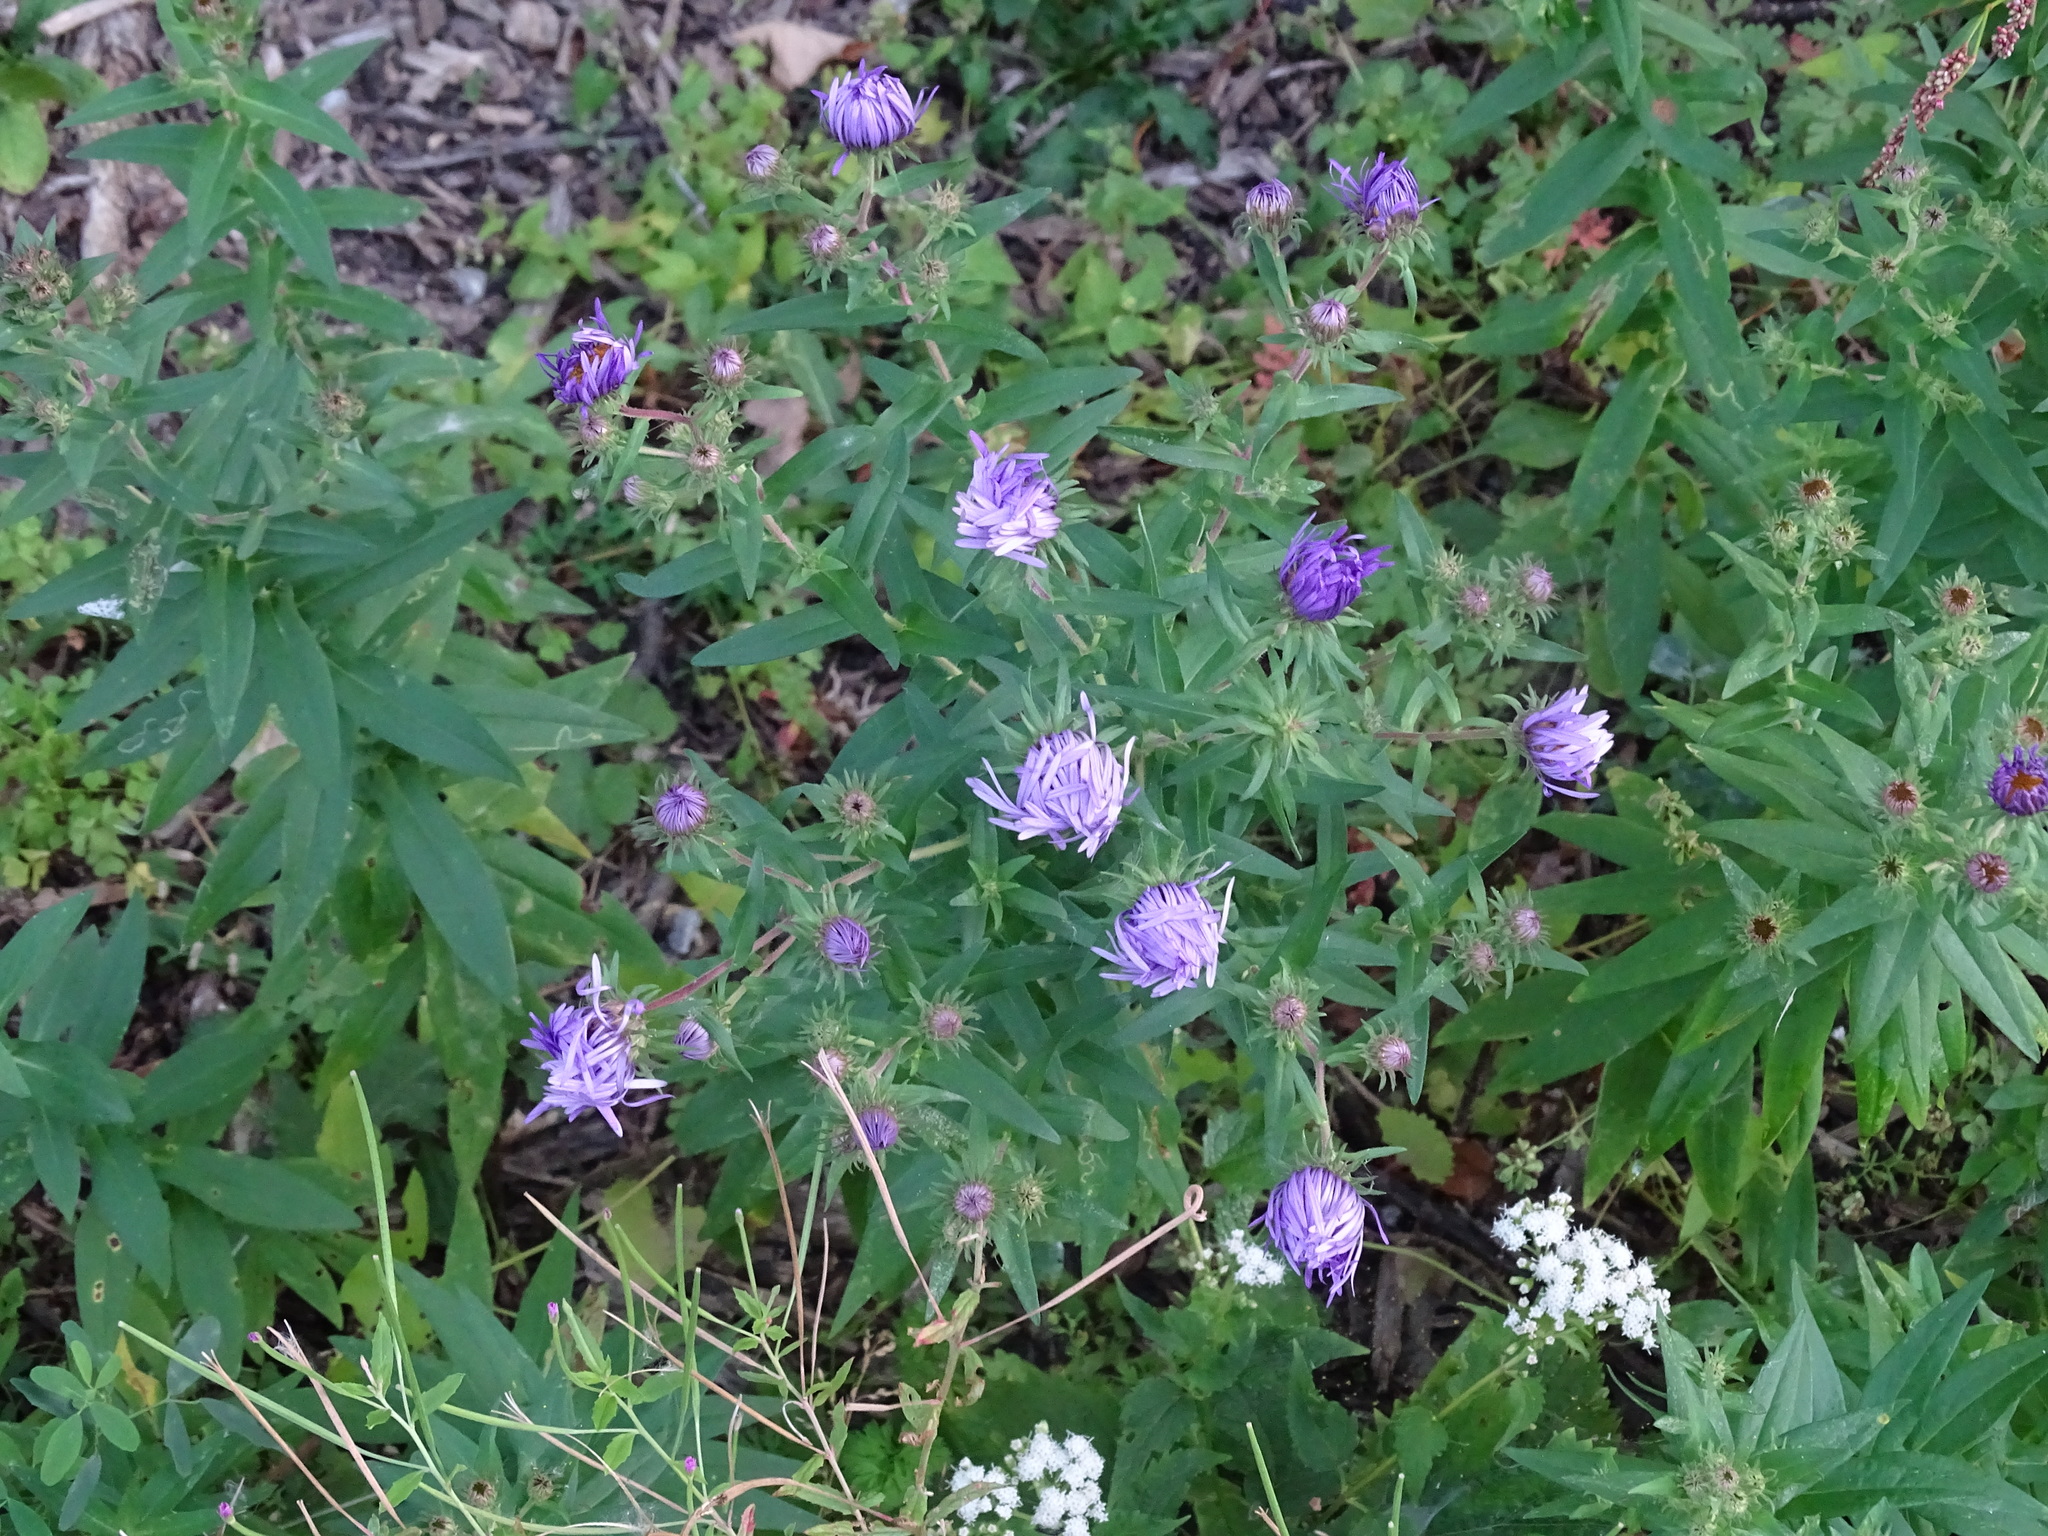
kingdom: Plantae
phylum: Tracheophyta
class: Magnoliopsida
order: Asterales
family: Asteraceae
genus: Symphyotrichum
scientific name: Symphyotrichum novae-angliae
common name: Michaelmas daisy
